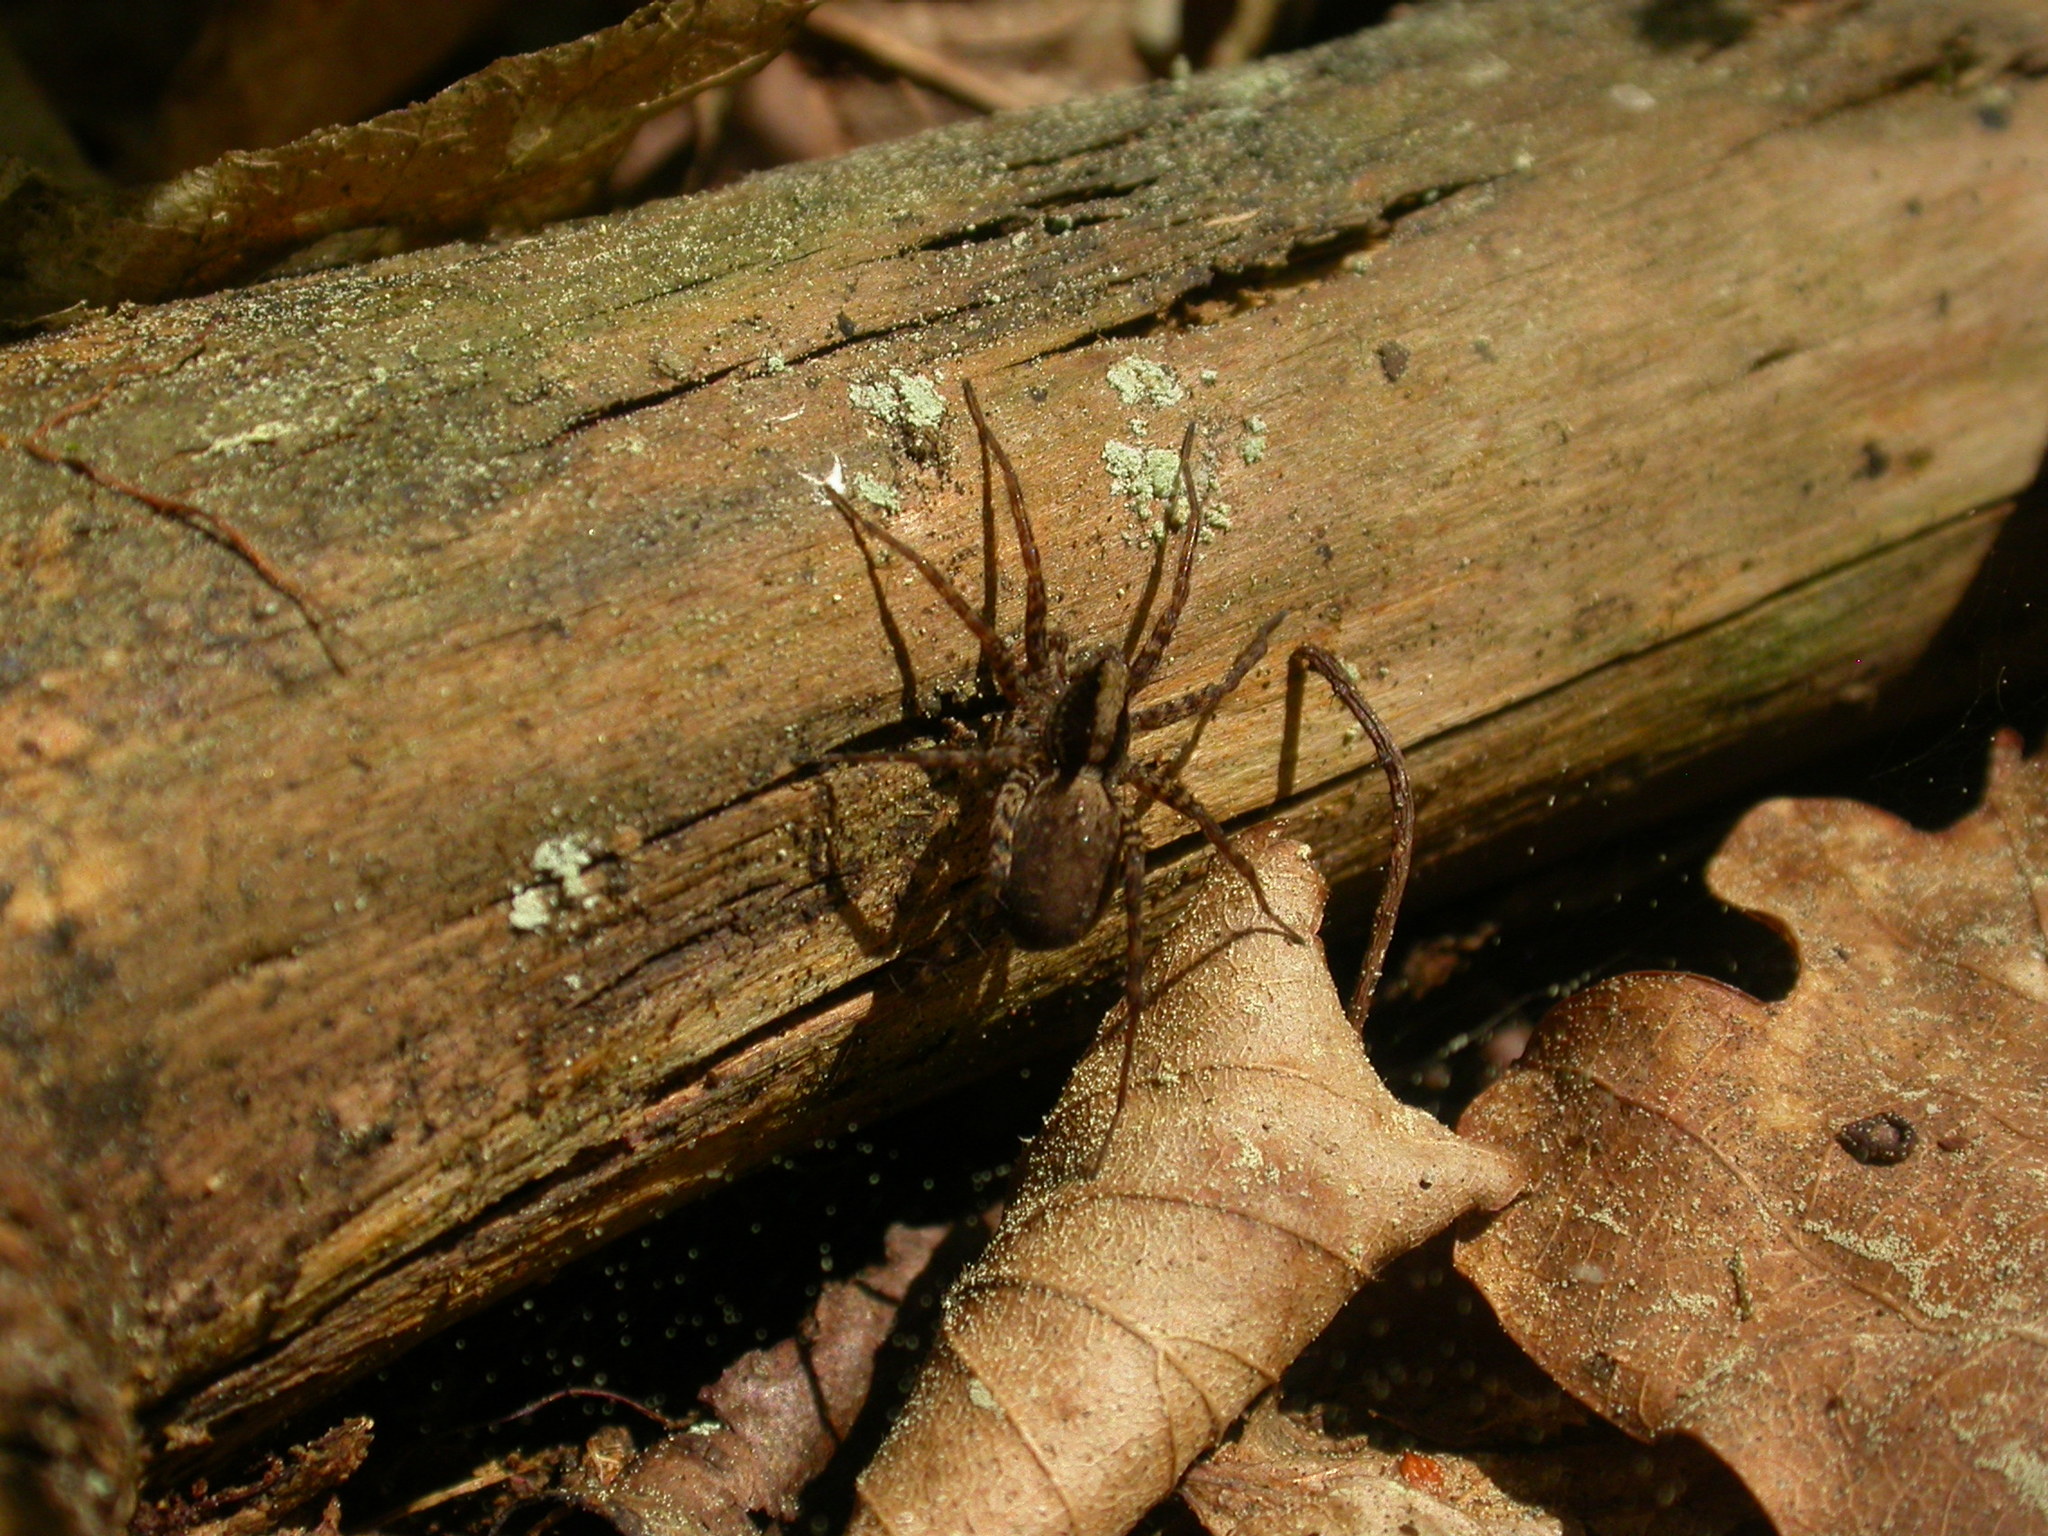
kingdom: Animalia
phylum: Arthropoda
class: Arachnida
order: Araneae
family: Lycosidae
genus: Pardosa
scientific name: Pardosa
